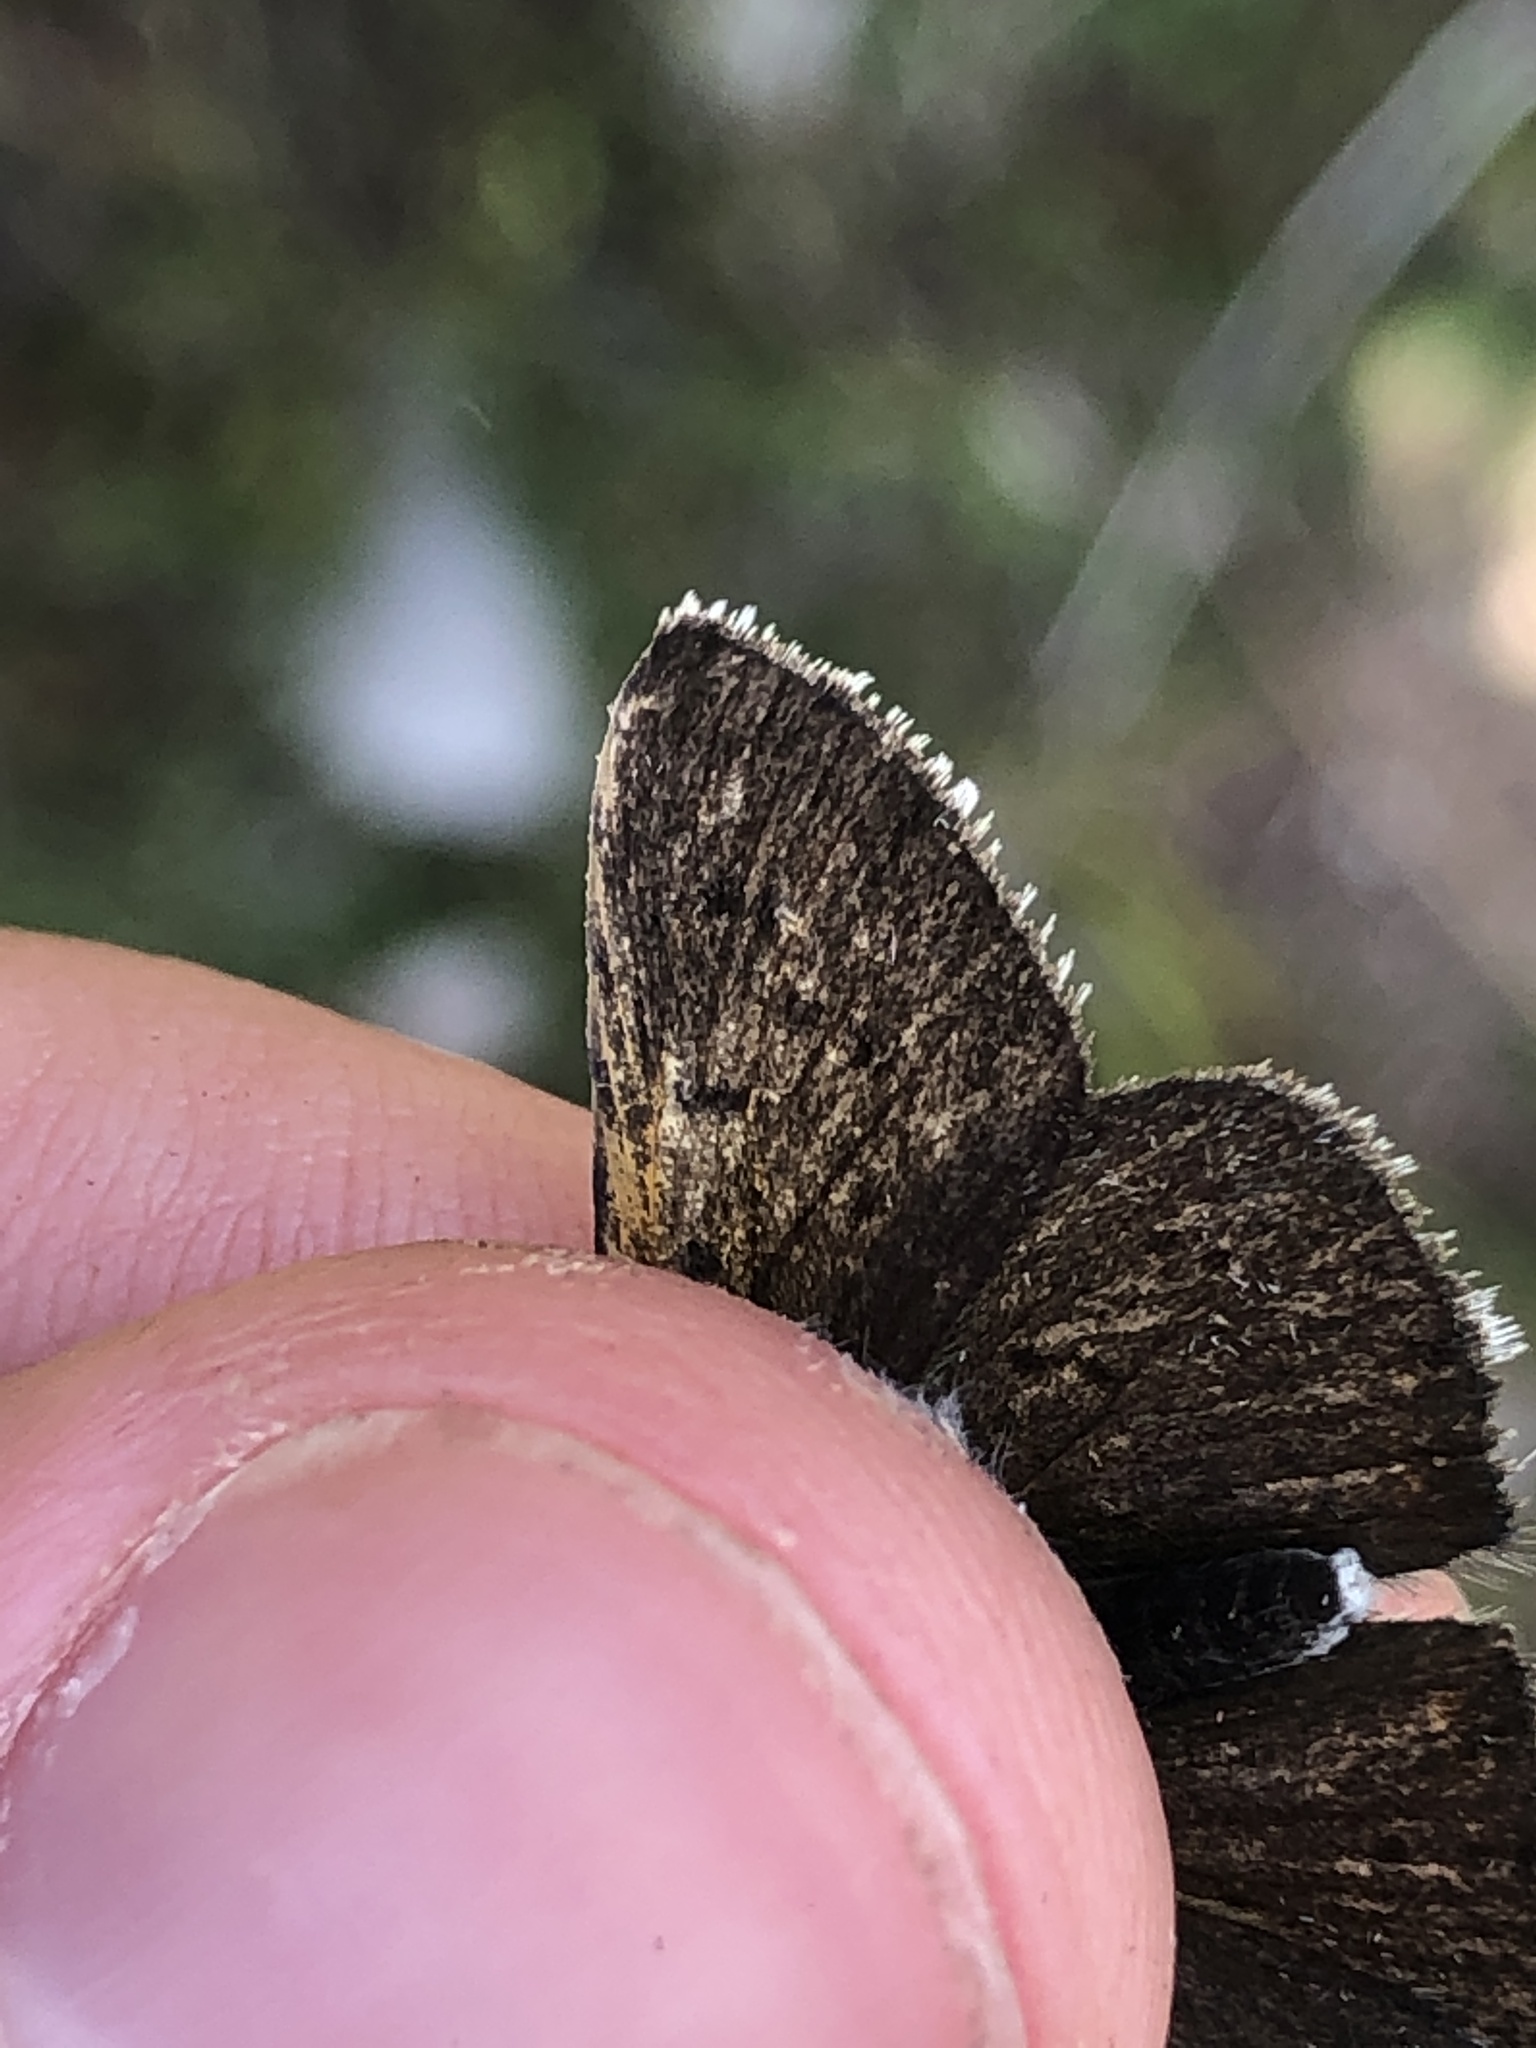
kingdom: Animalia
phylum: Arthropoda
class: Insecta
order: Lepidoptera
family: Lycaenidae
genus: Loweia
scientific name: Loweia tityrus
